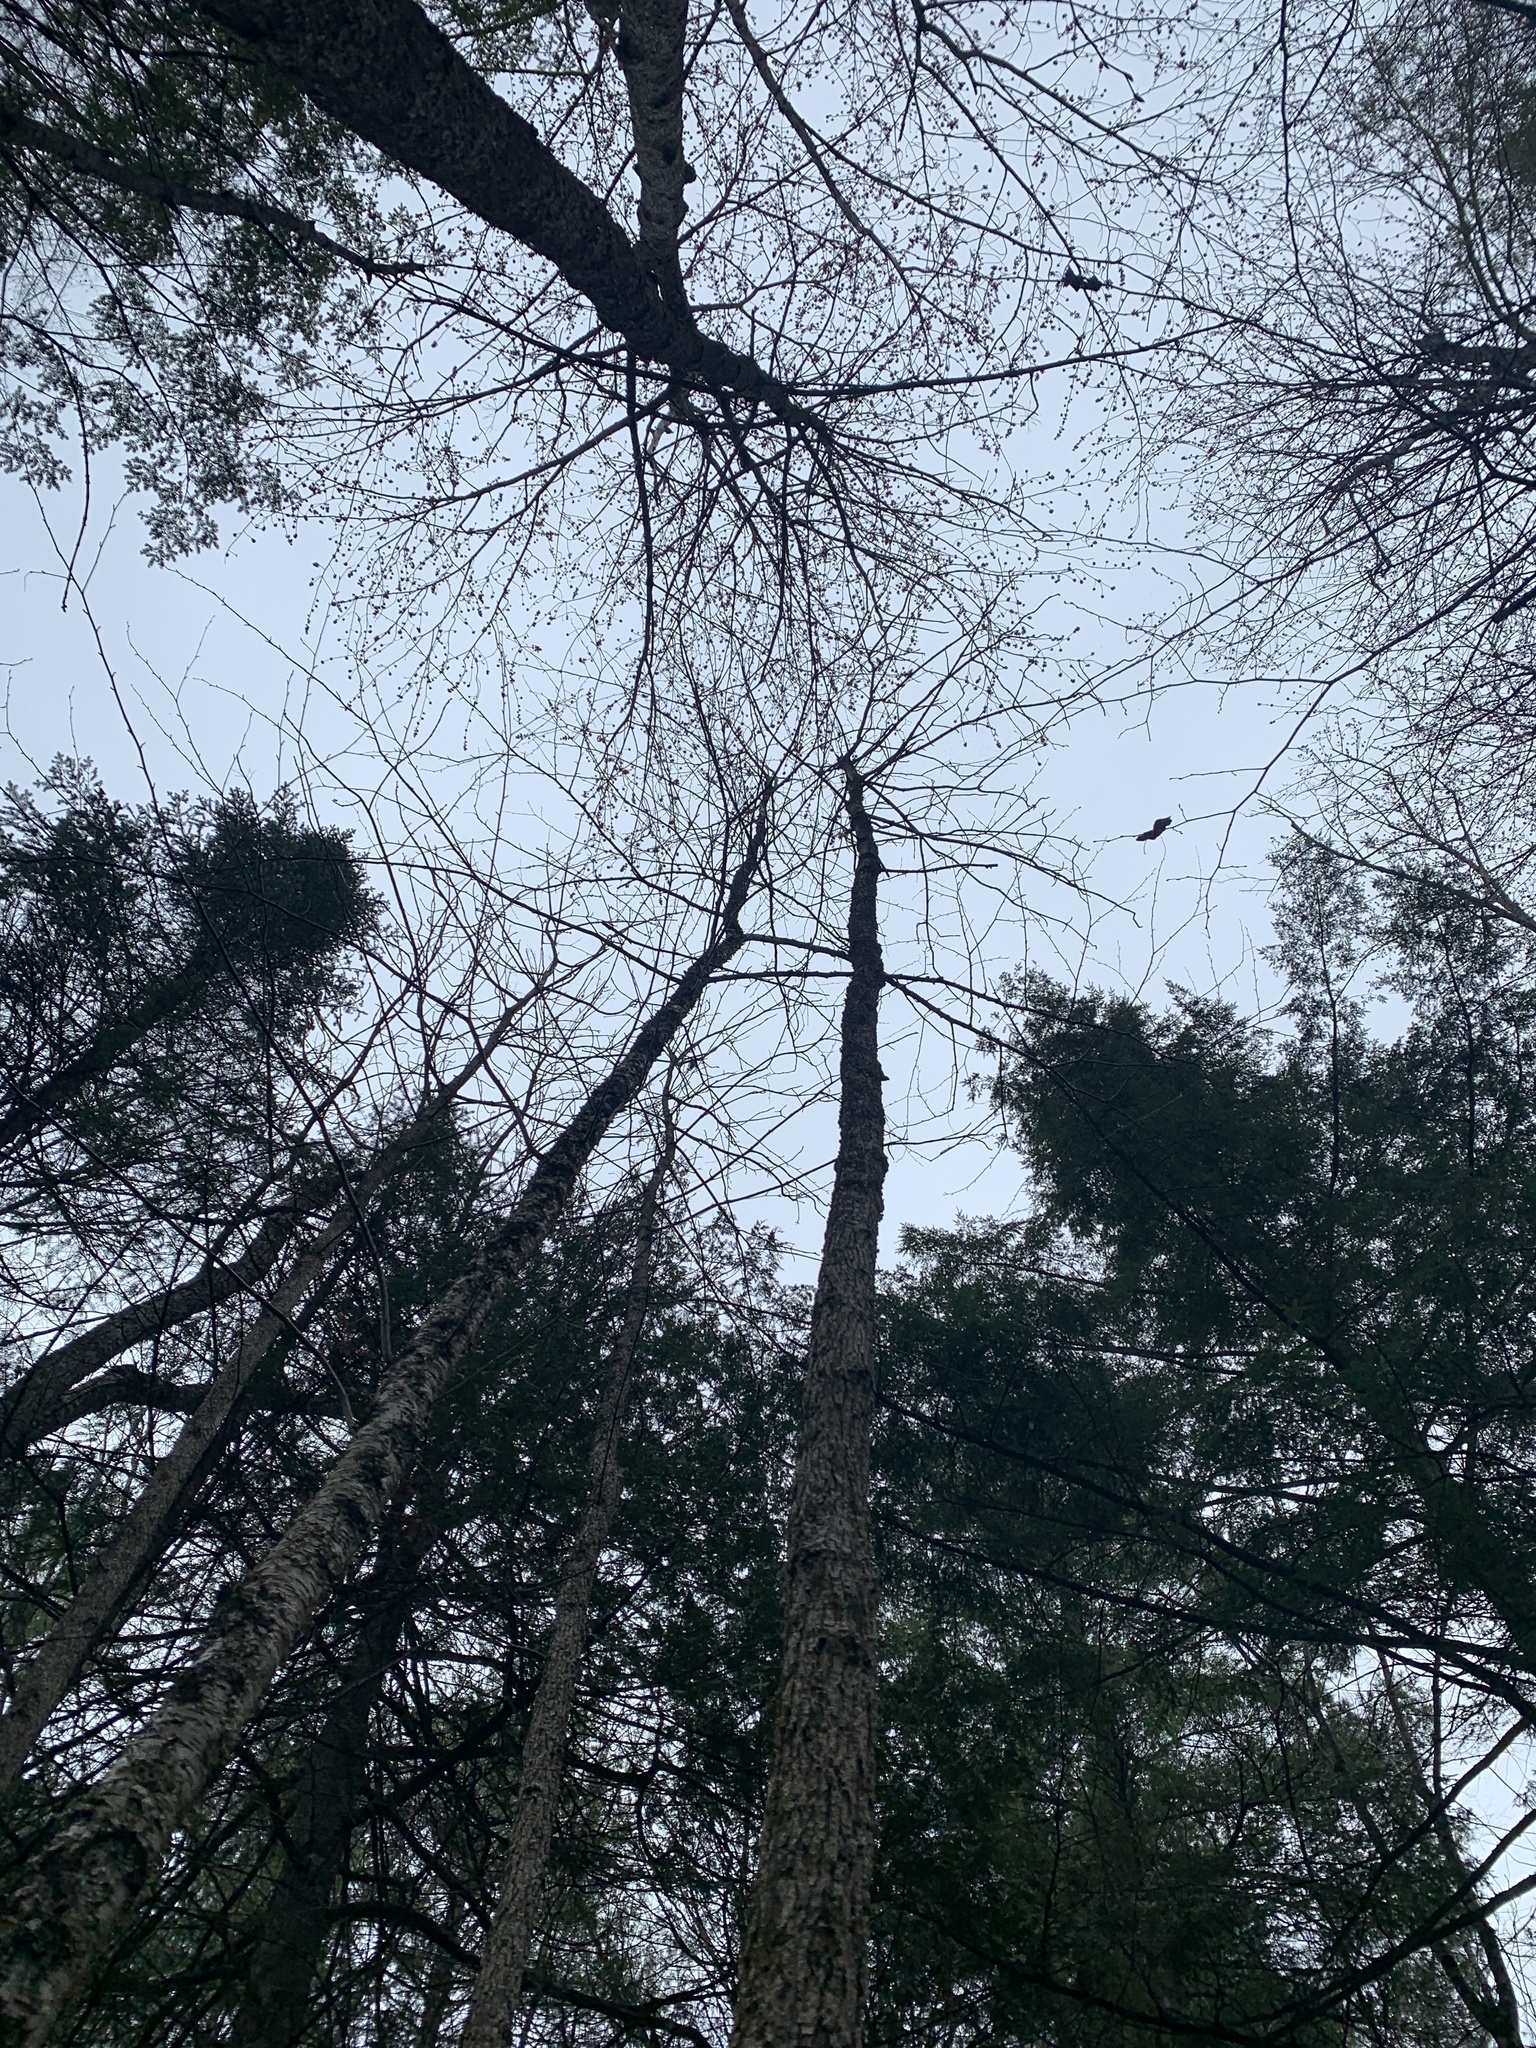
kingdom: Plantae
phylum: Tracheophyta
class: Magnoliopsida
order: Lamiales
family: Oleaceae
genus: Fraxinus
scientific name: Fraxinus nigra
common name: Black ash
